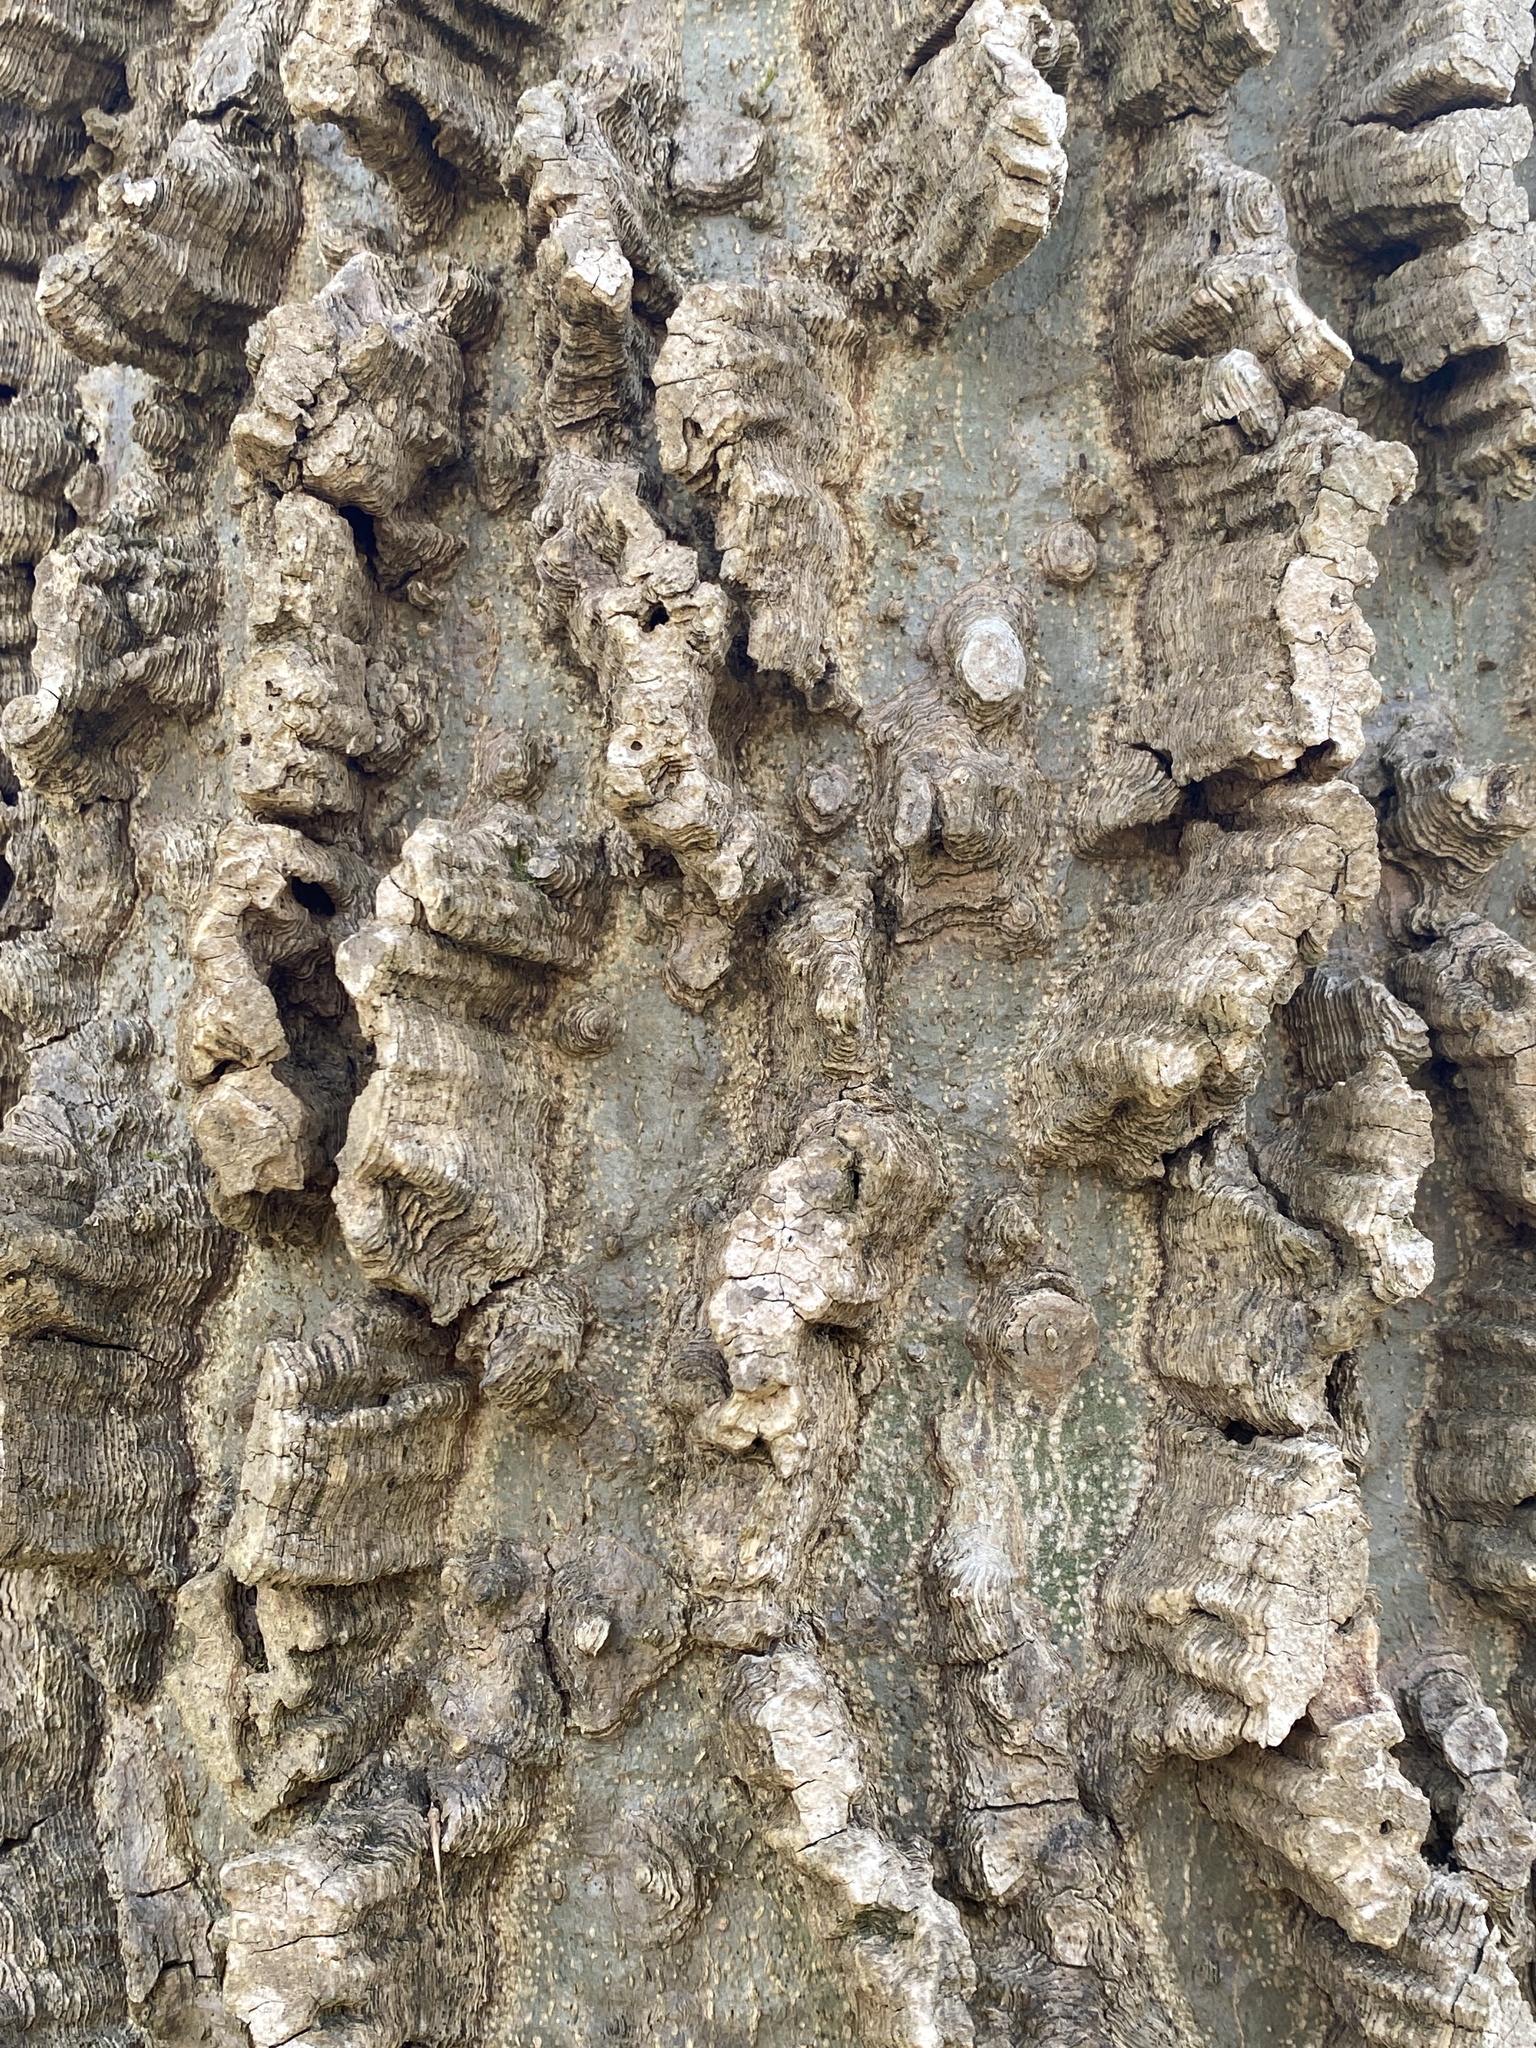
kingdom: Plantae
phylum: Tracheophyta
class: Magnoliopsida
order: Rosales
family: Cannabaceae
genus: Celtis
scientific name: Celtis laevigata
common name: Sugarberry
